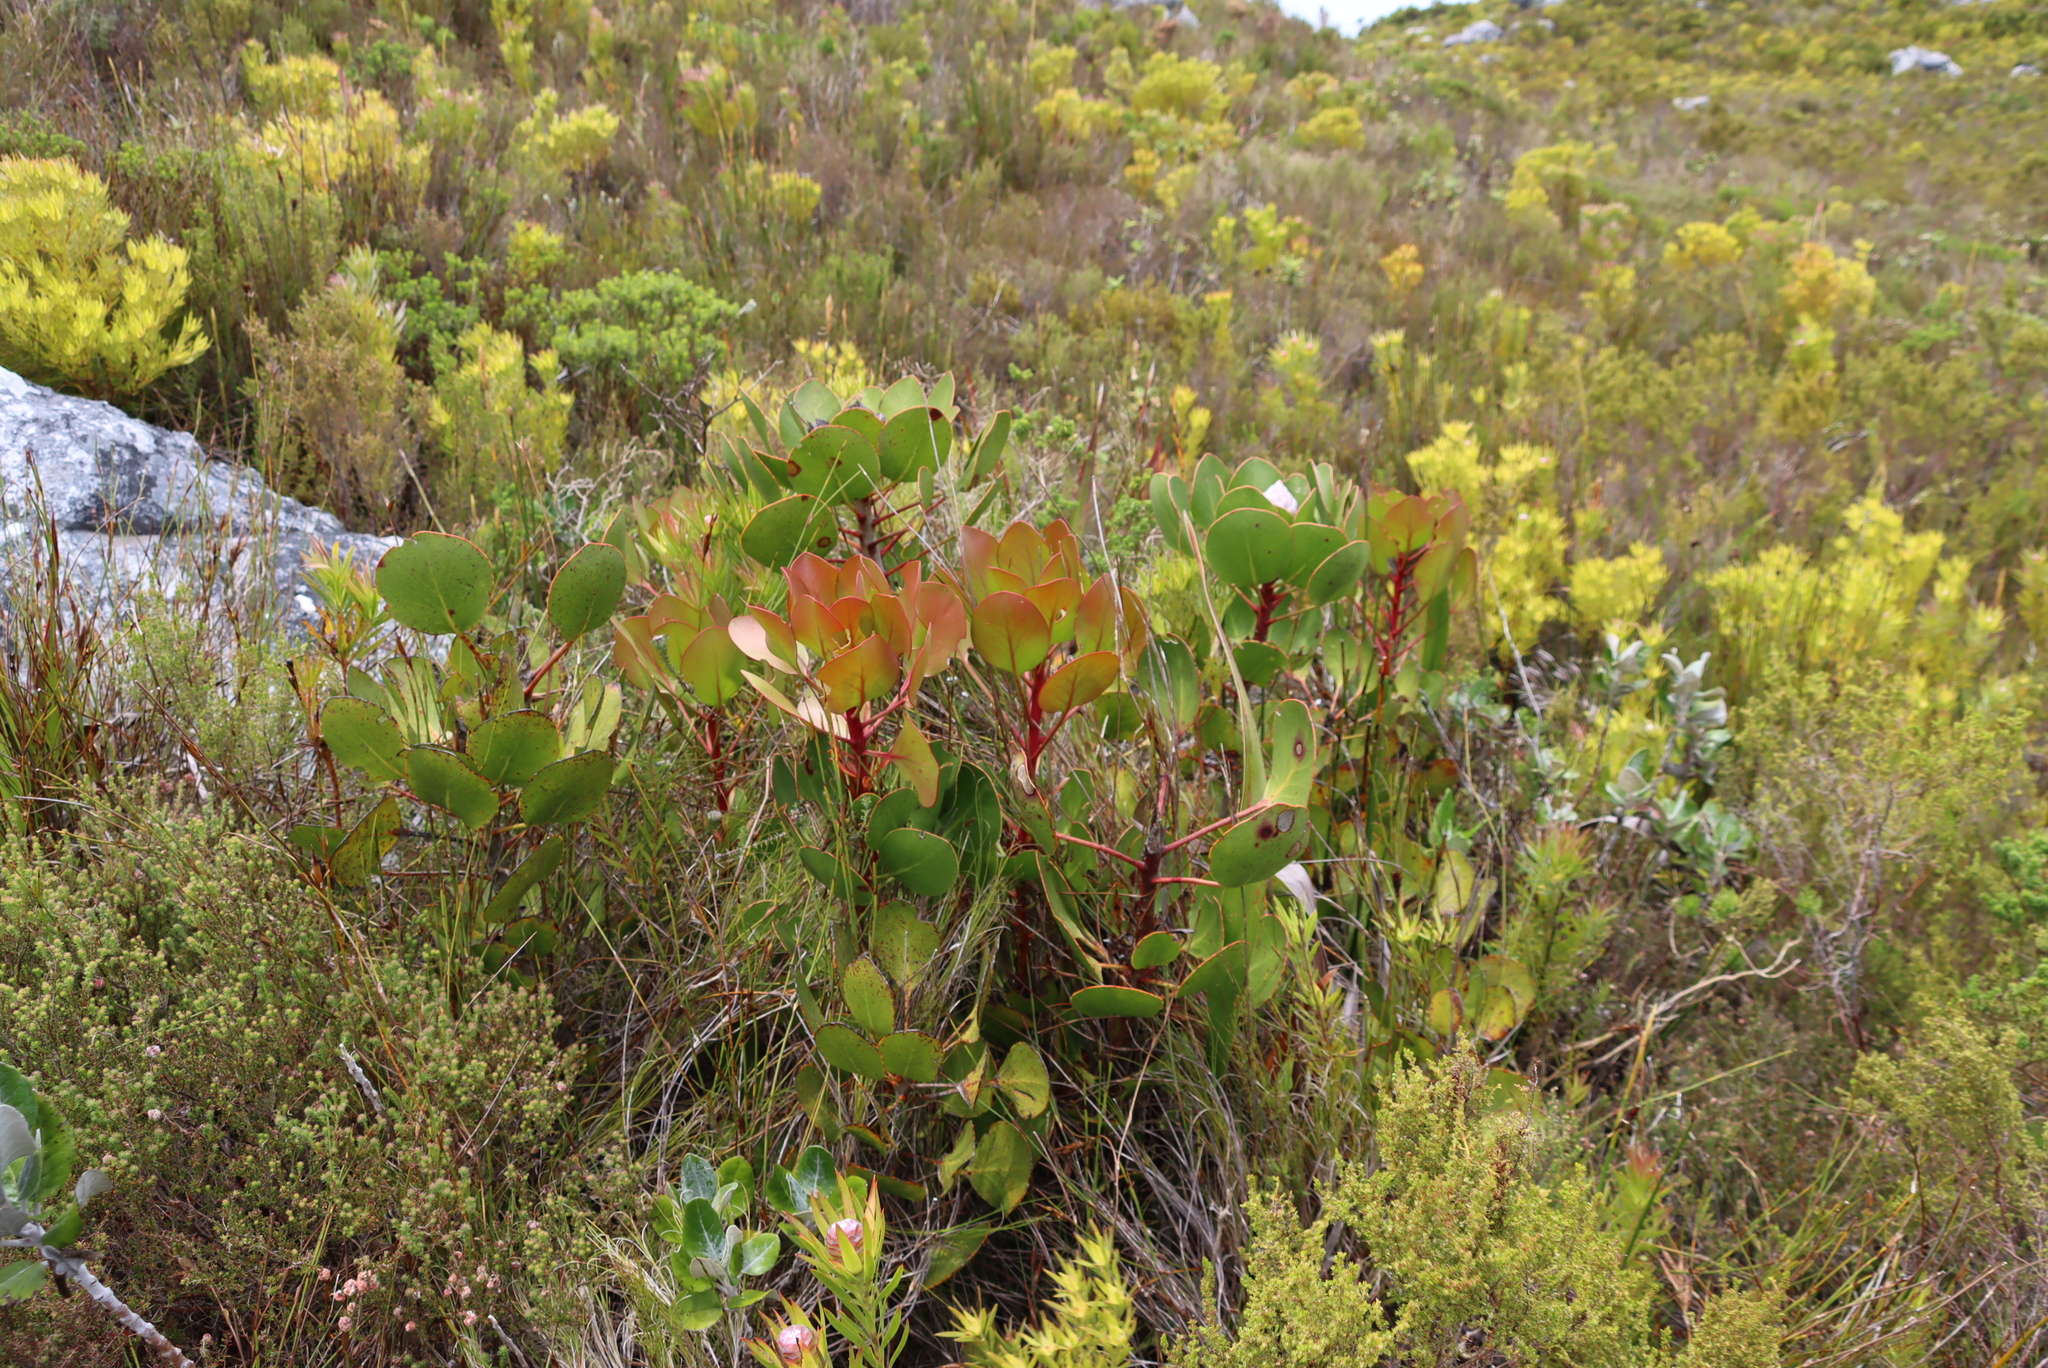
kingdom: Plantae
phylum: Tracheophyta
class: Magnoliopsida
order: Proteales
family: Proteaceae
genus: Protea
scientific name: Protea cynaroides
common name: King protea
